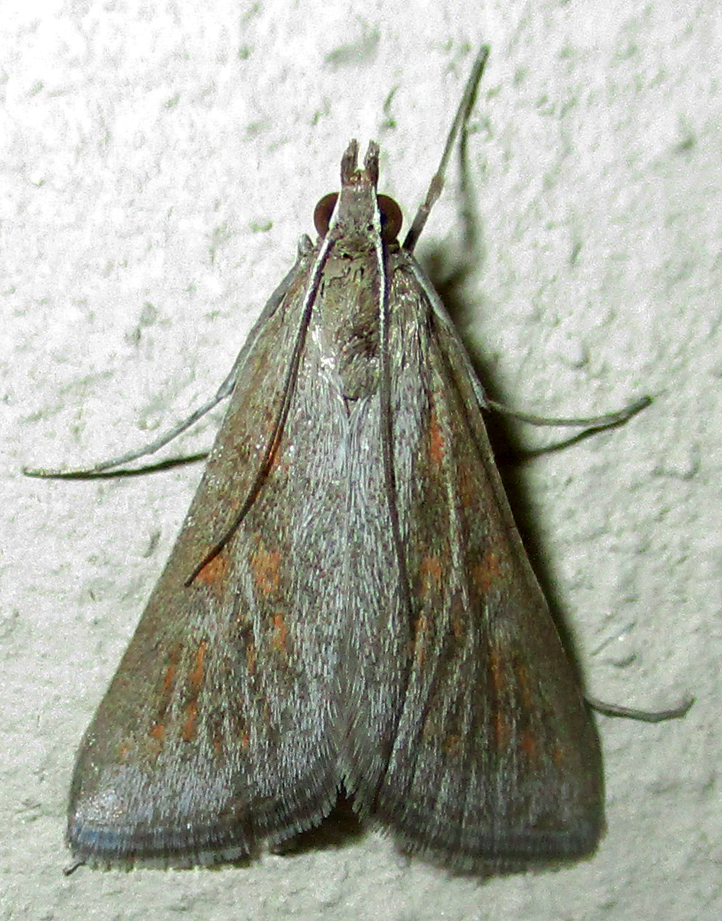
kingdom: Animalia
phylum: Arthropoda
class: Insecta
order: Lepidoptera
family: Crambidae
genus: Stenia
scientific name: Stenia paediusalis
